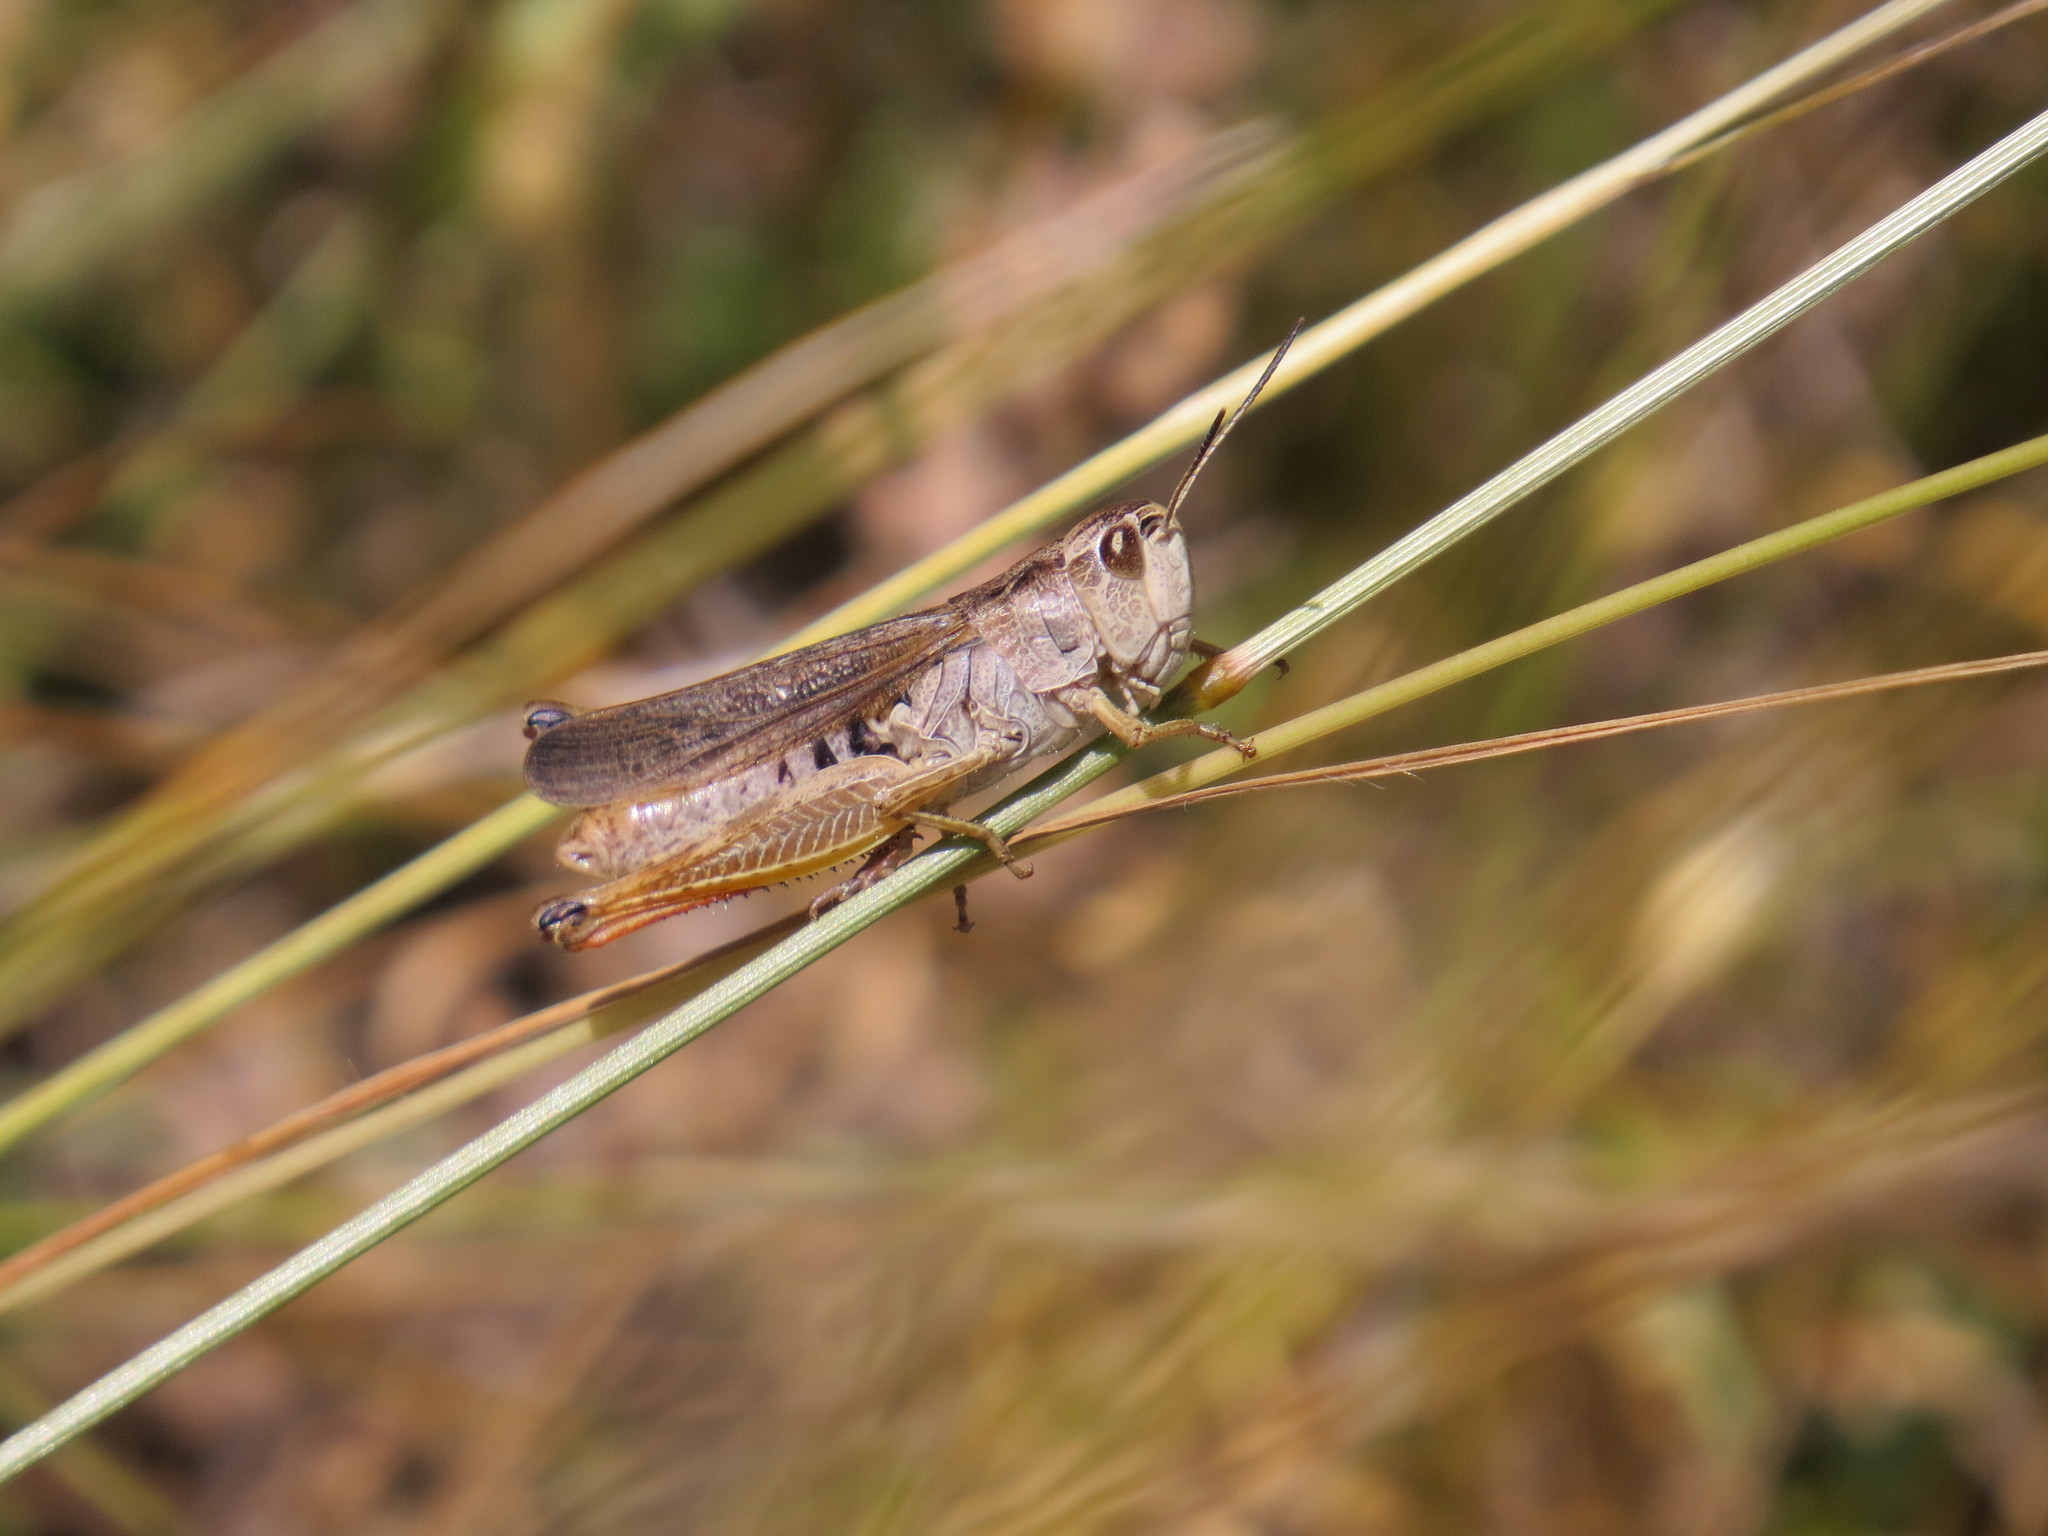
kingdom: Animalia
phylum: Arthropoda
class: Insecta
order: Orthoptera
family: Acrididae
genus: Stauroderus
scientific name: Stauroderus scalaris
